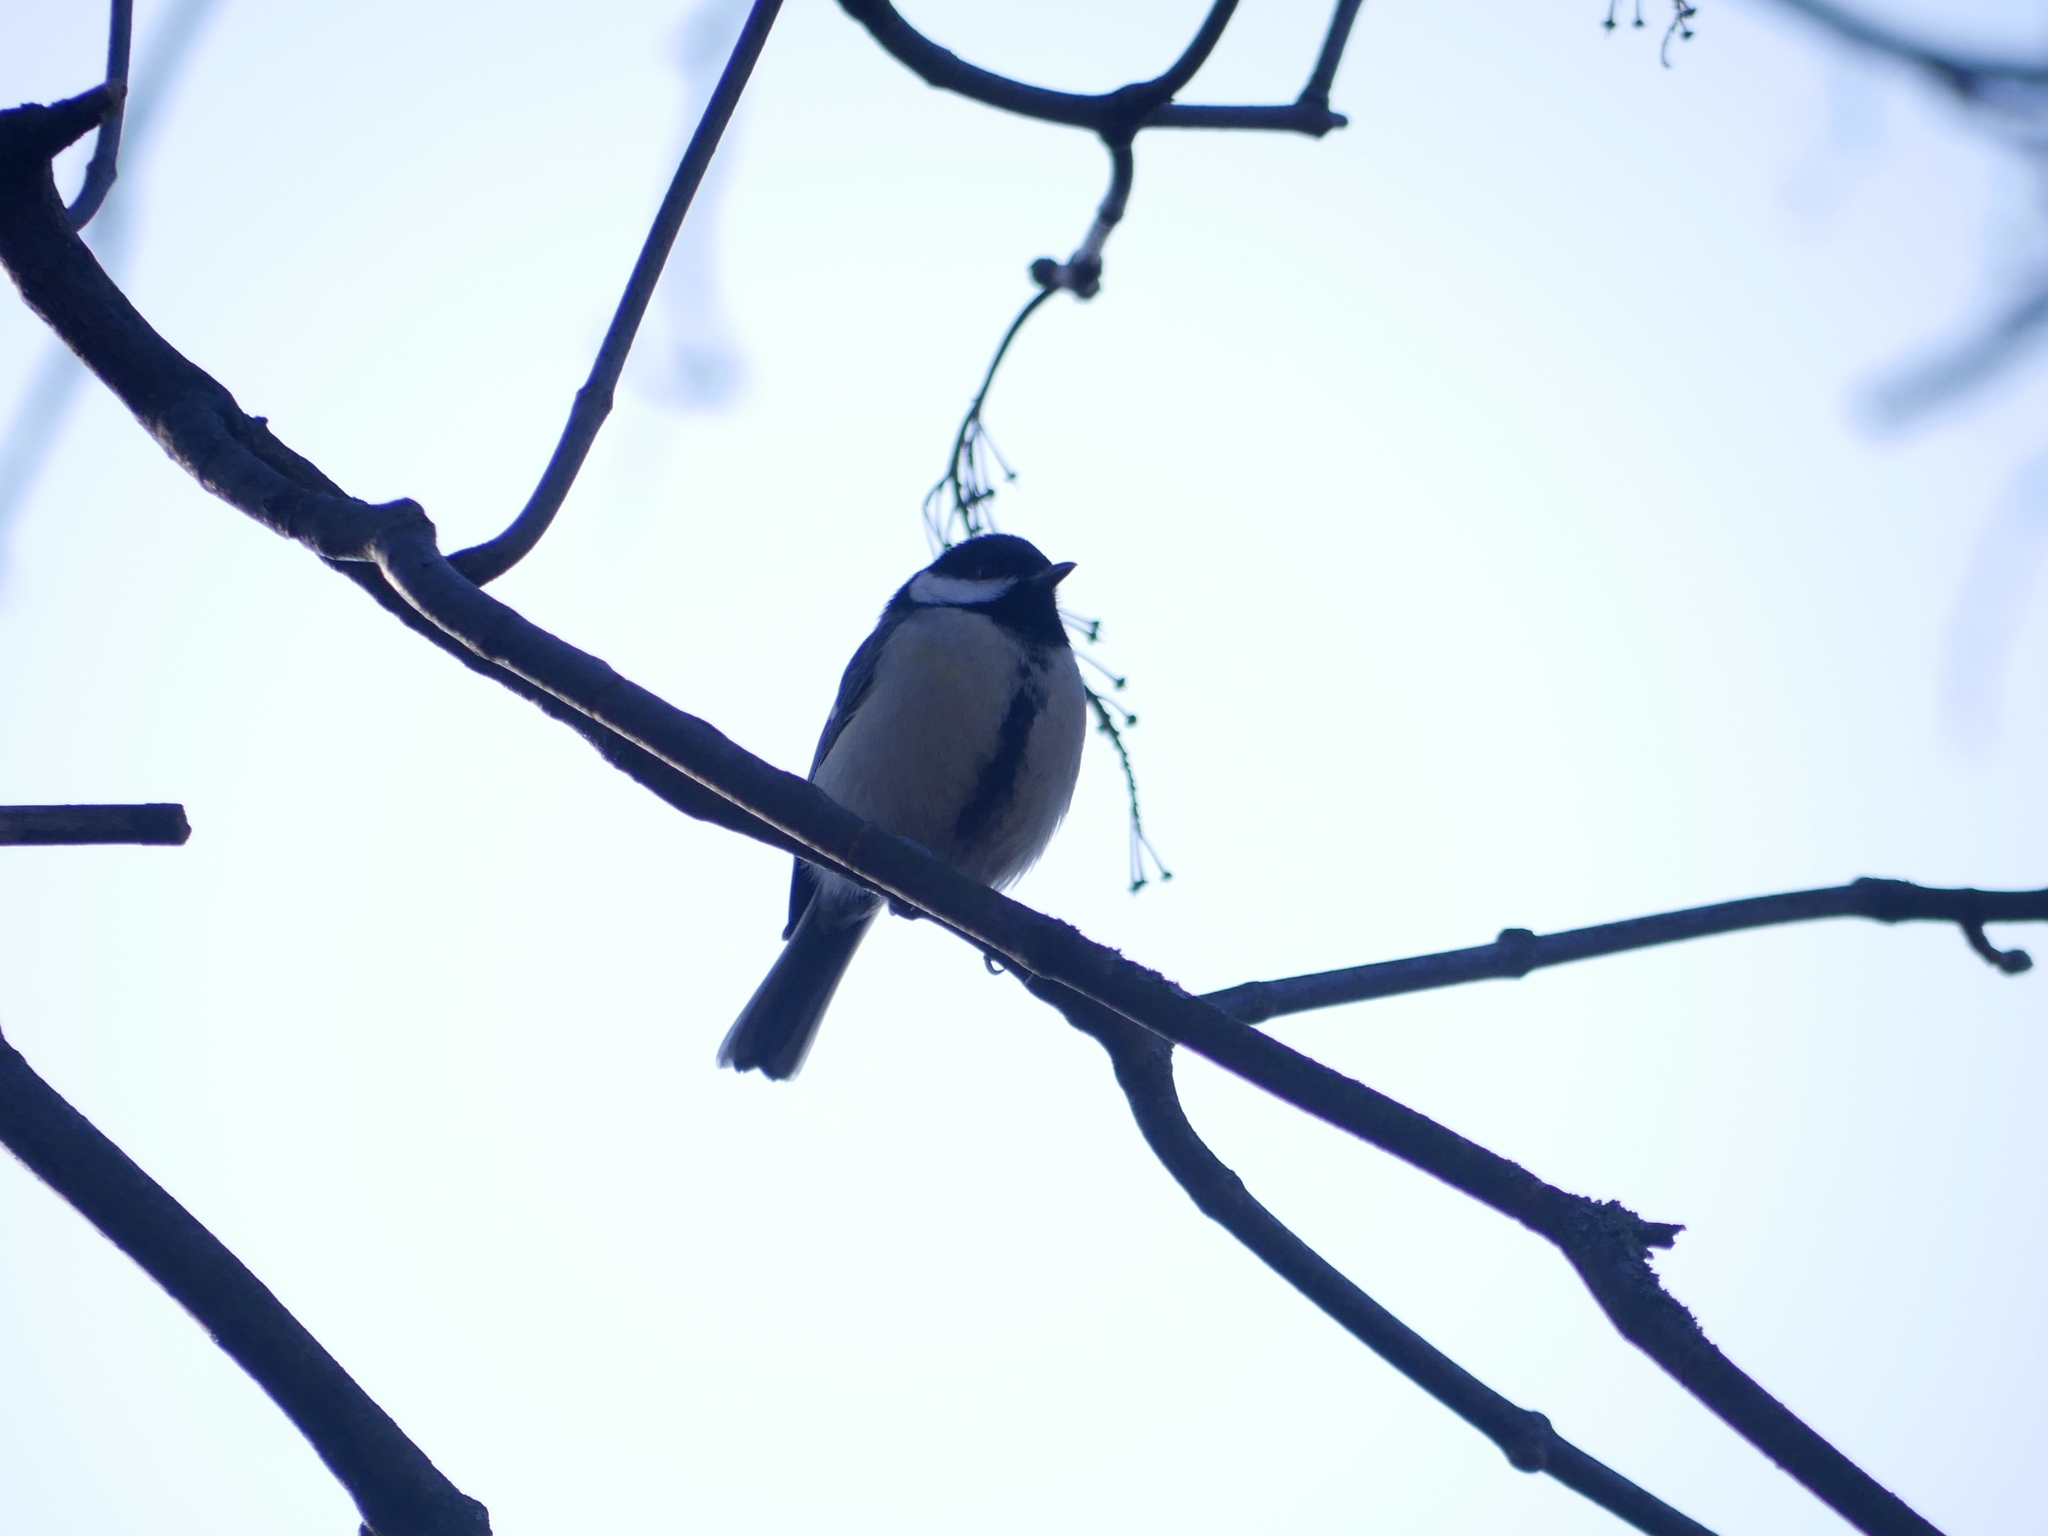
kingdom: Animalia
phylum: Chordata
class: Aves
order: Passeriformes
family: Paridae
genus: Parus
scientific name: Parus major
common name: Great tit
